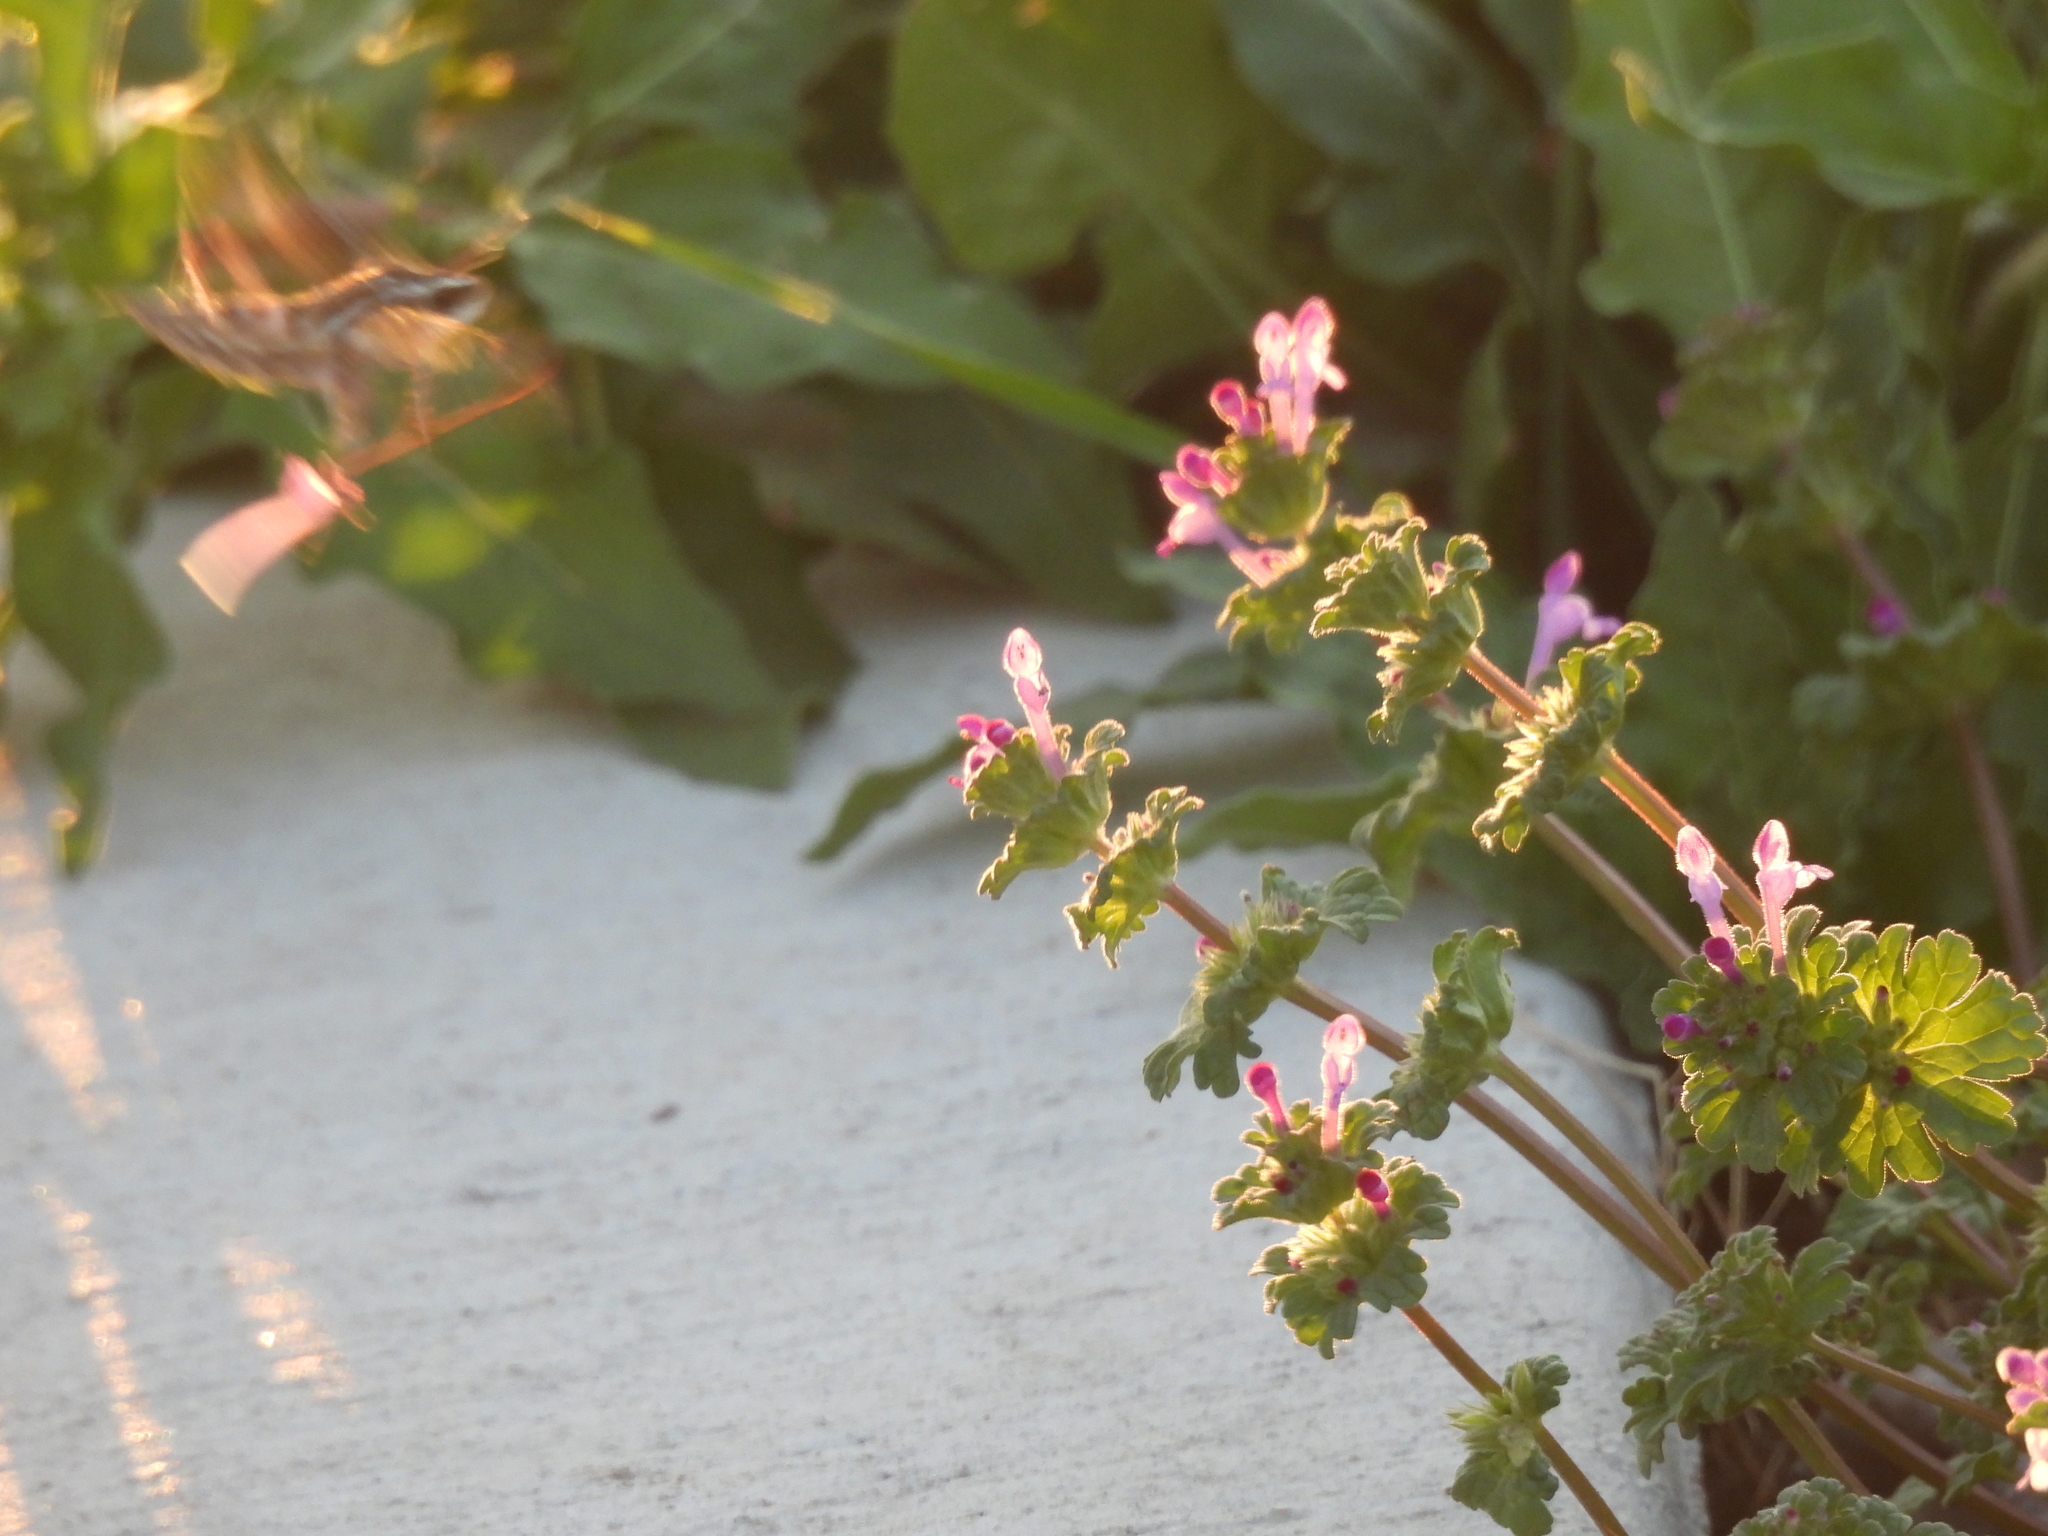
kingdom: Animalia
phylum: Arthropoda
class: Insecta
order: Lepidoptera
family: Sphingidae
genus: Hyles
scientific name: Hyles lineata
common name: White-lined sphinx
